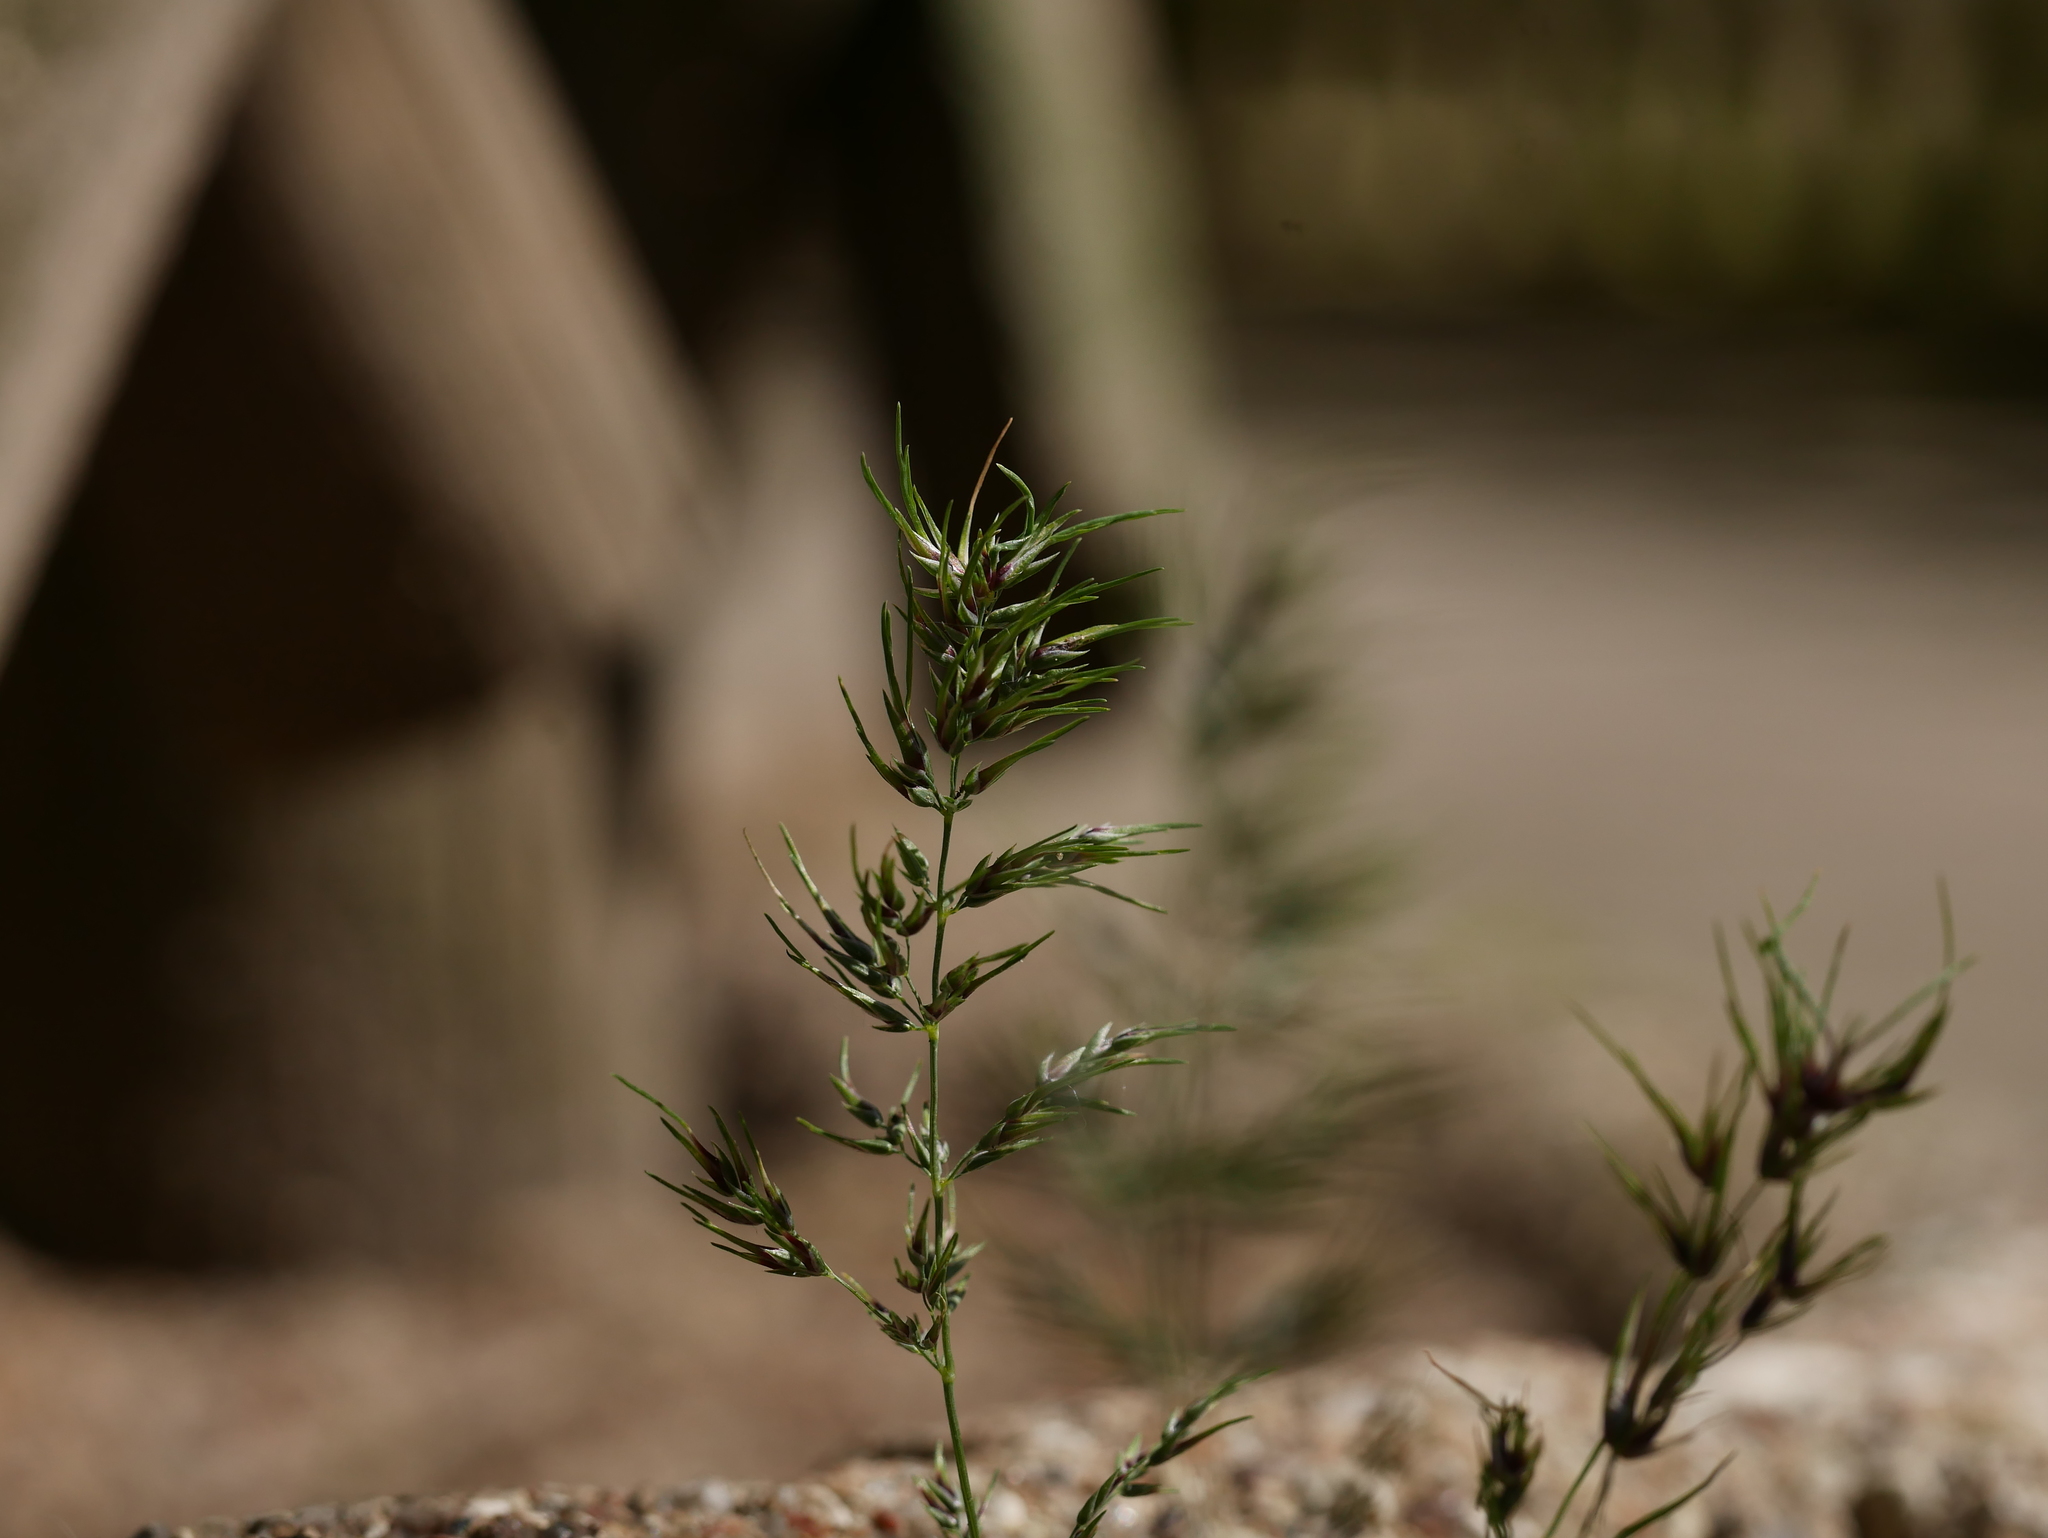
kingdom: Plantae
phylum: Tracheophyta
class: Liliopsida
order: Poales
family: Poaceae
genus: Poa
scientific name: Poa bulbosa
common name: Bulbous bluegrass
